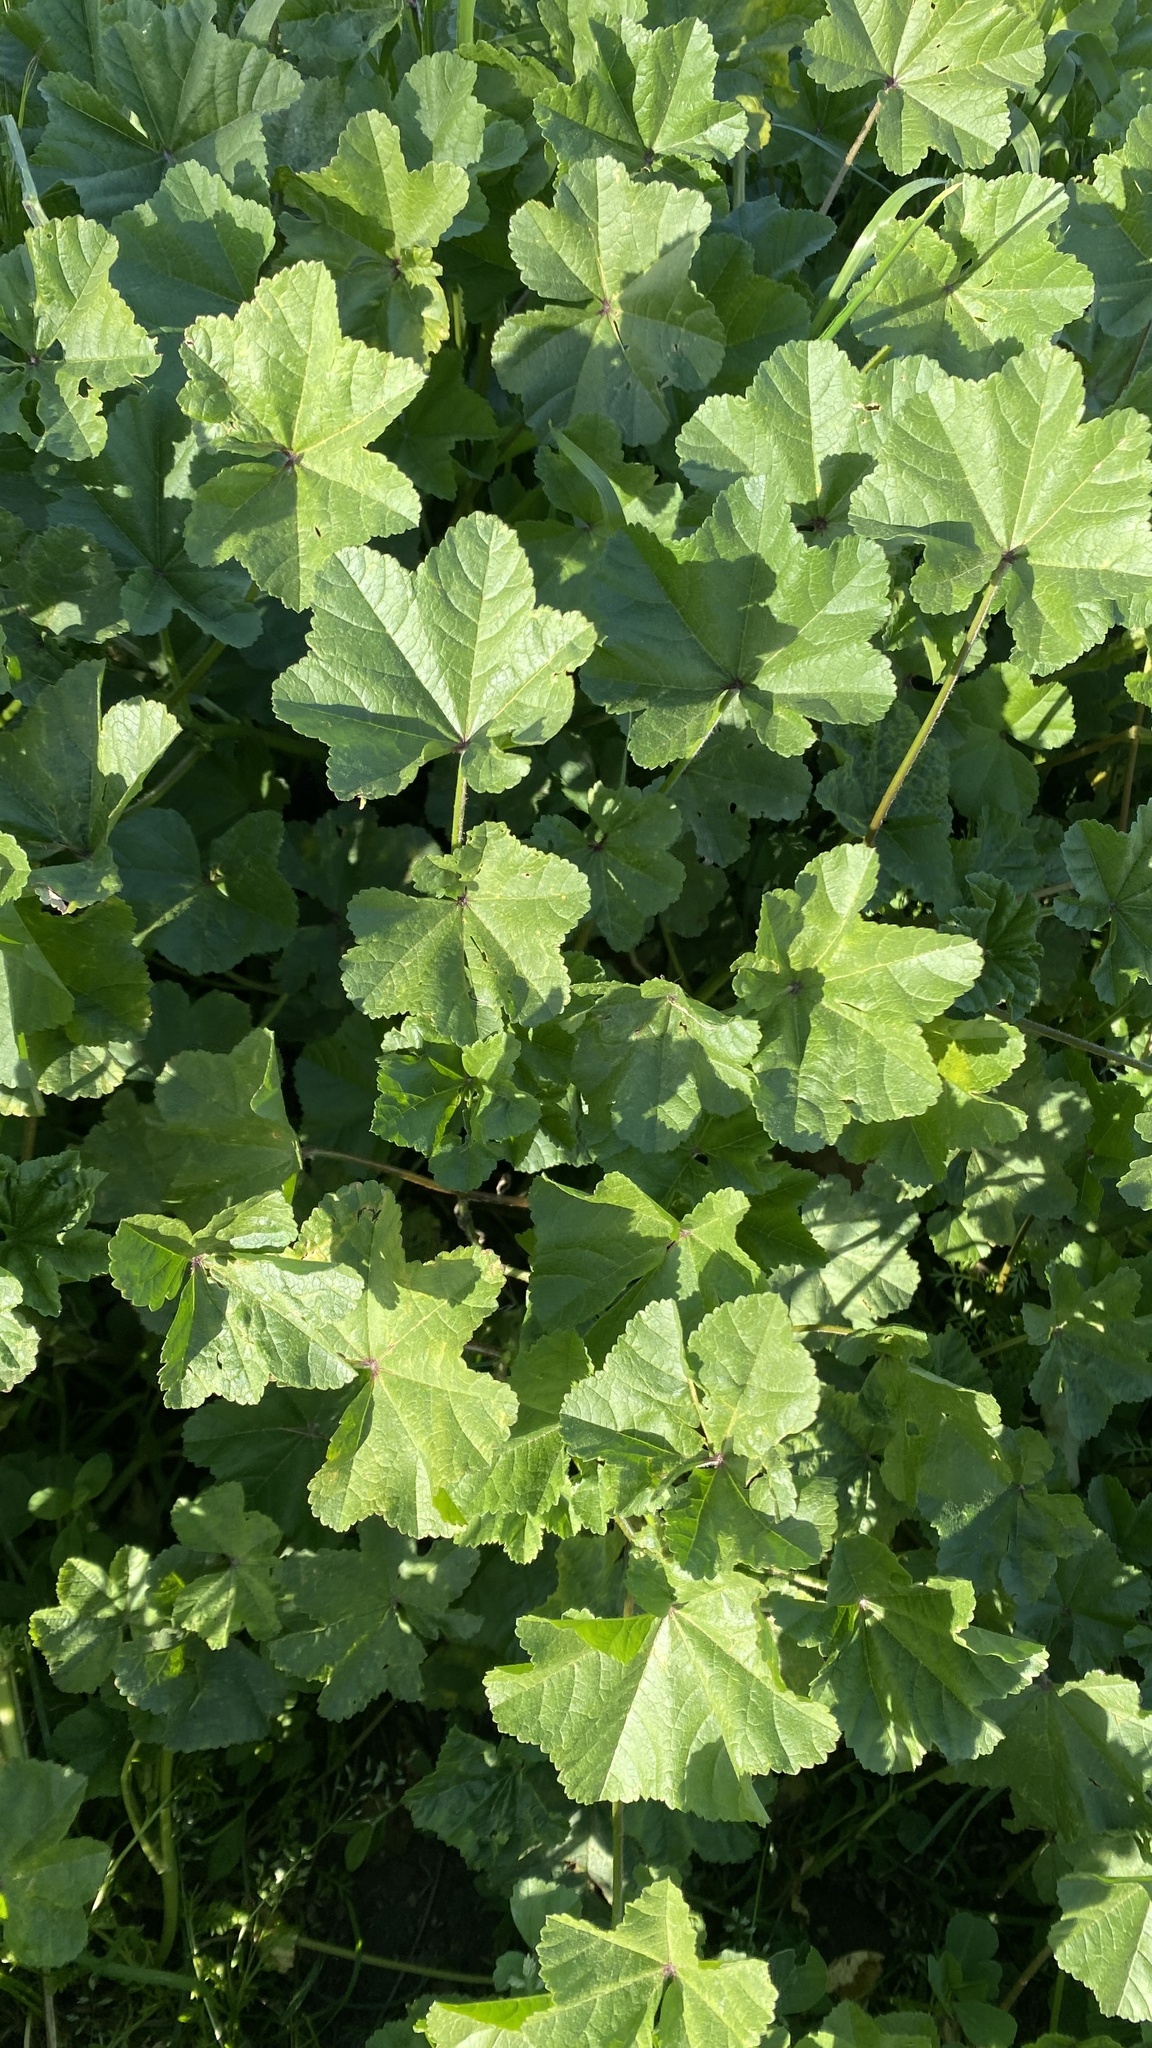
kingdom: Plantae
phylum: Tracheophyta
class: Magnoliopsida
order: Malvales
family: Malvaceae
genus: Malva
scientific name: Malva
